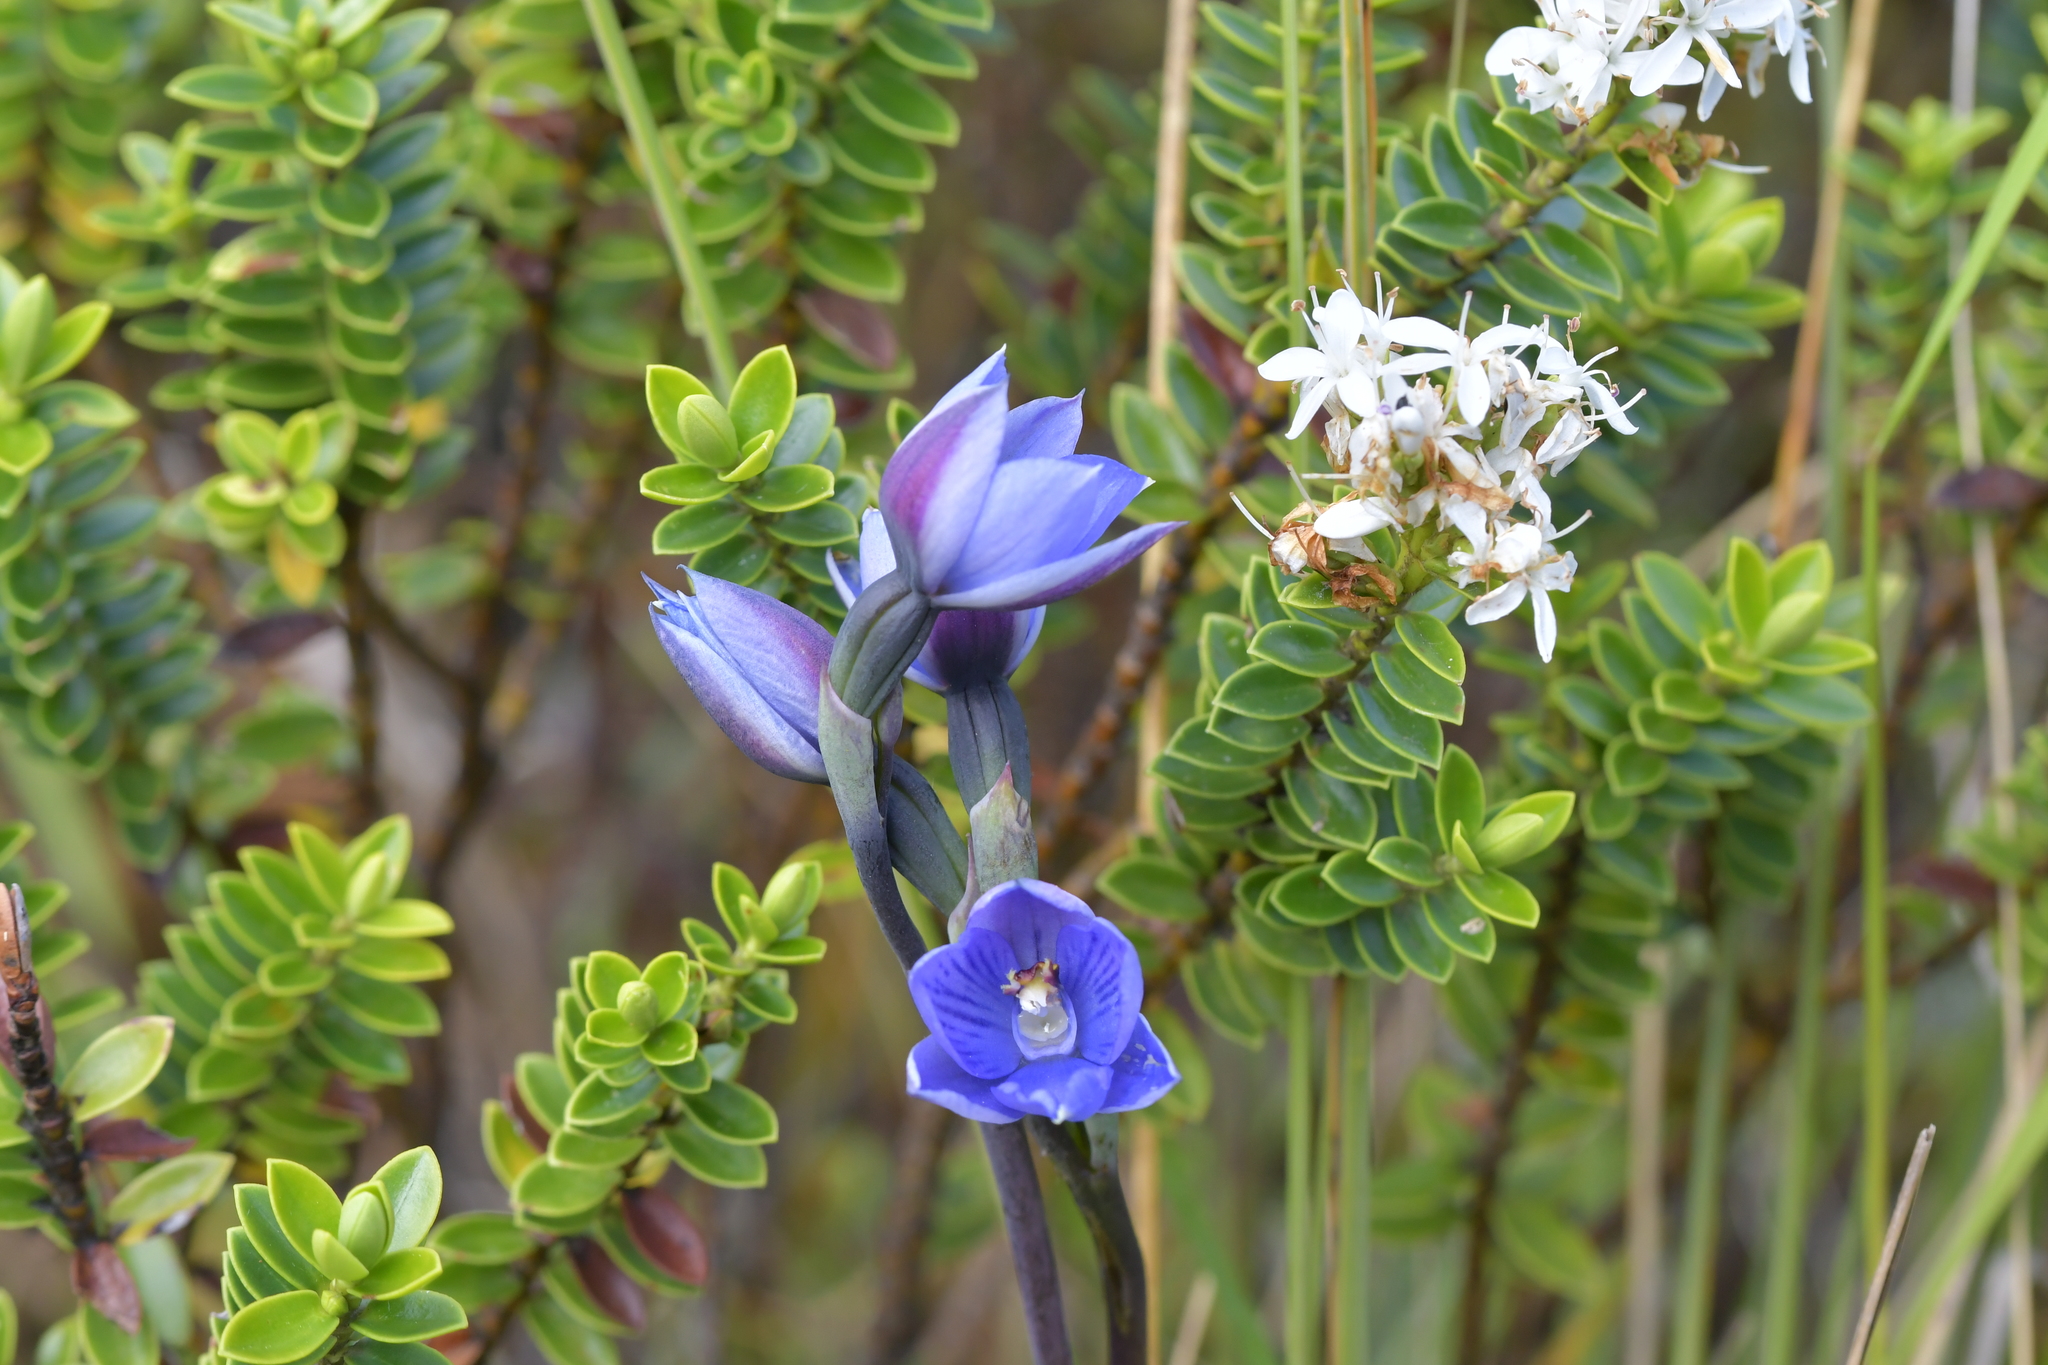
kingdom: Plantae
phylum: Tracheophyta
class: Liliopsida
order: Asparagales
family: Orchidaceae
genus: Thelymitra
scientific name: Thelymitra pulchella
